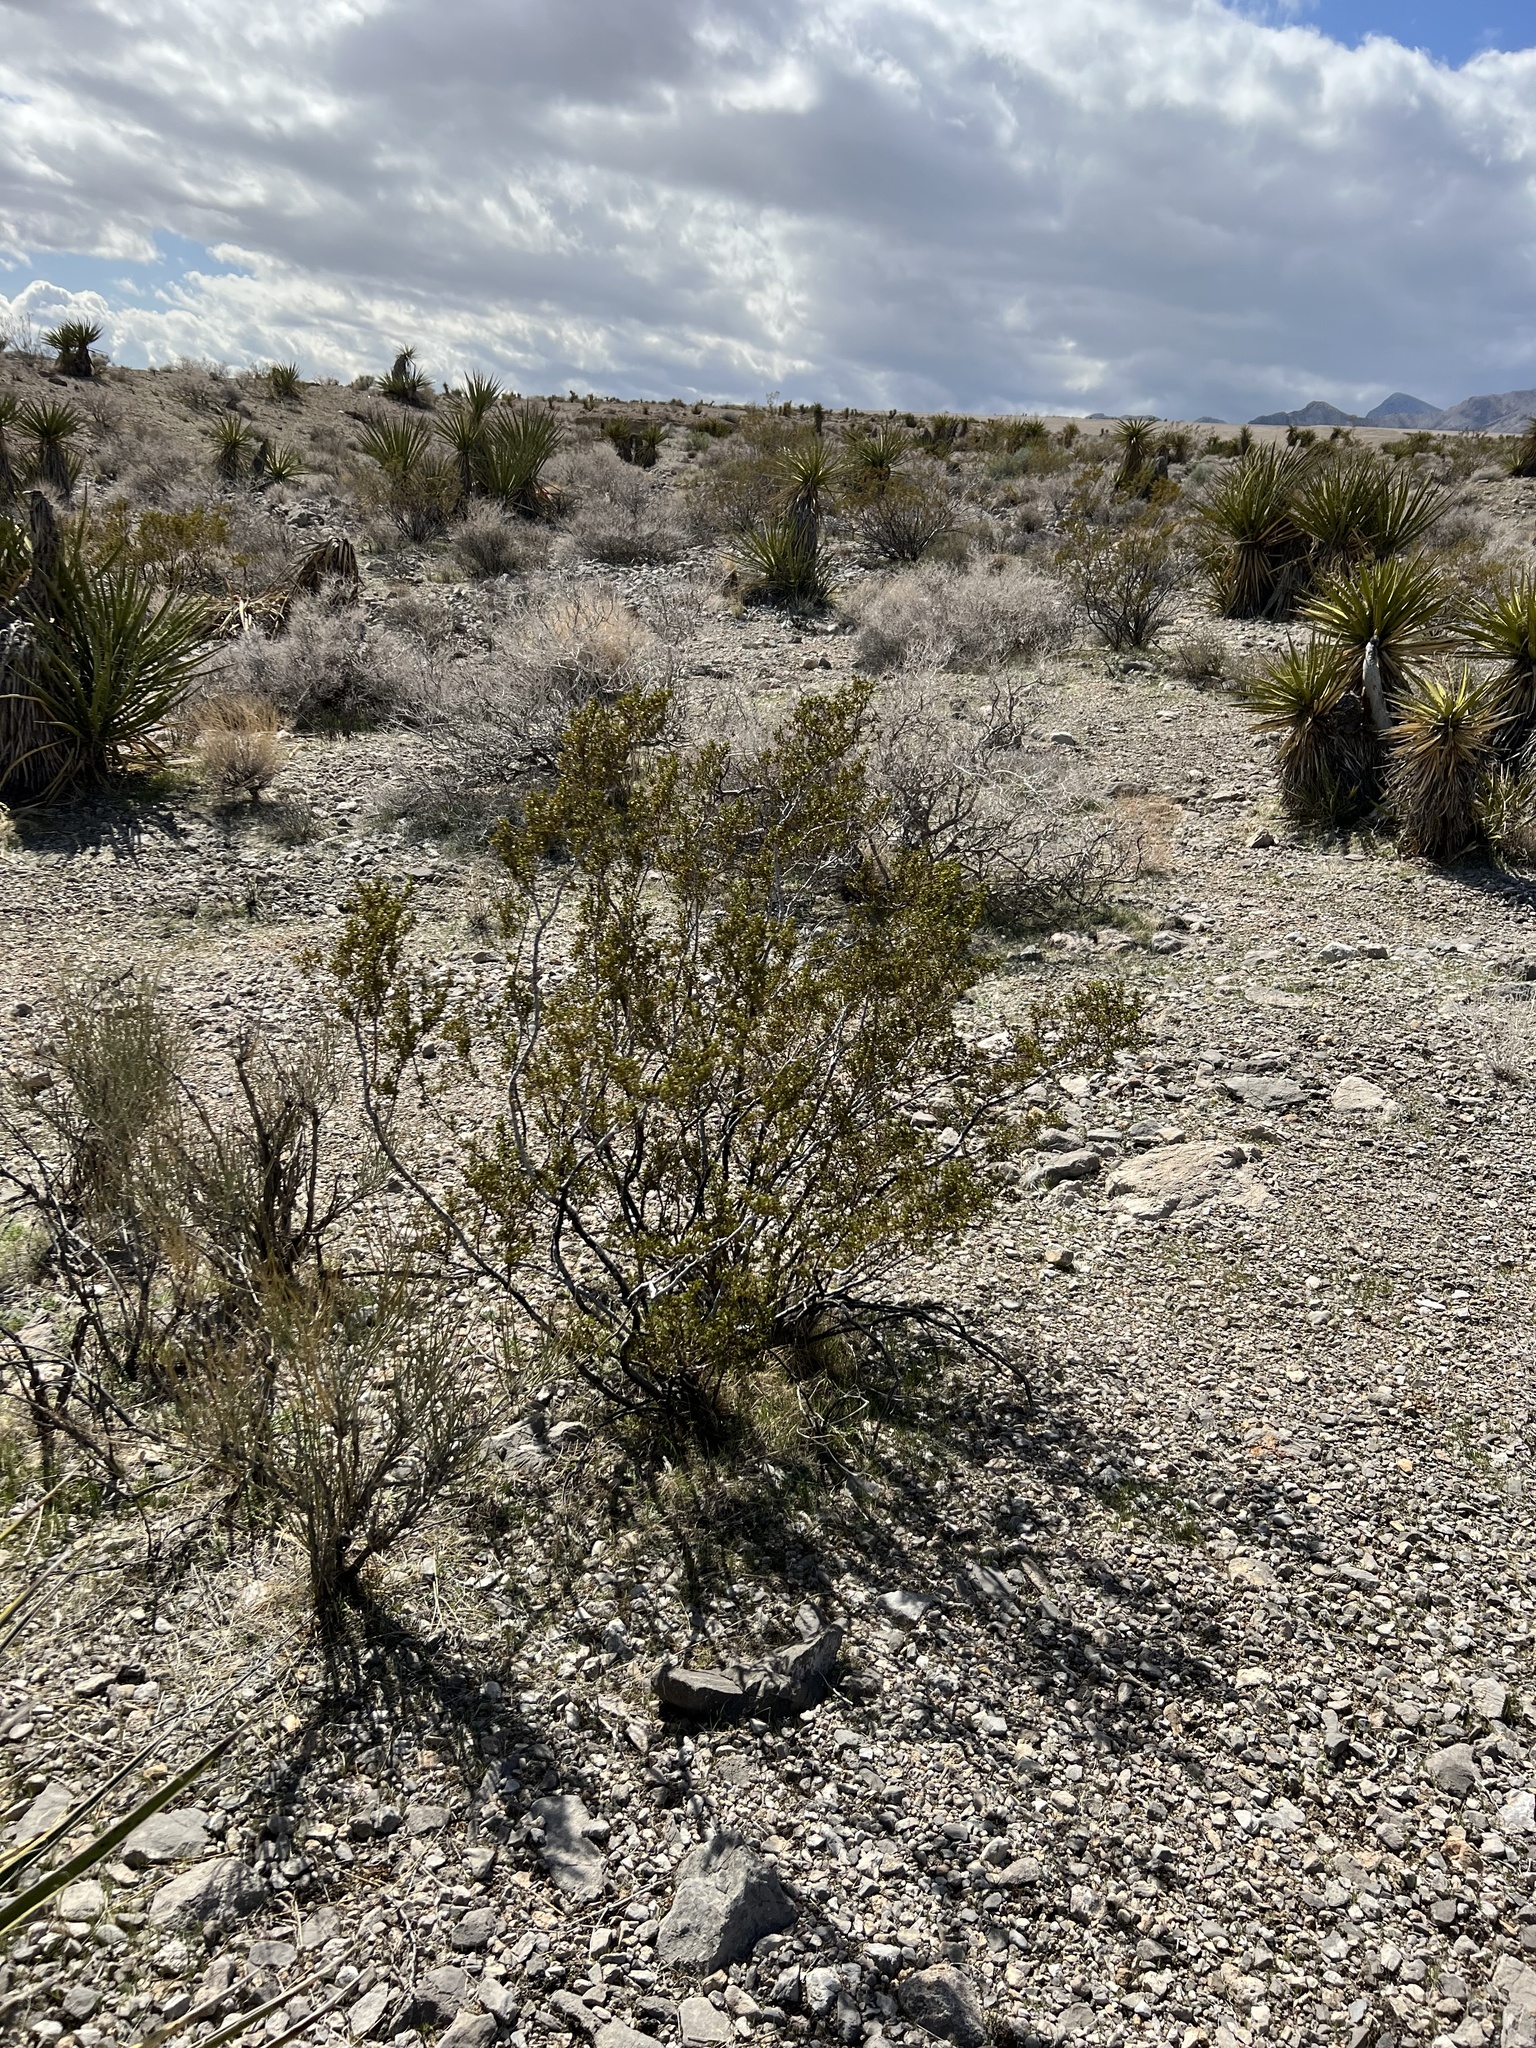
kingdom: Plantae
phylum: Tracheophyta
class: Magnoliopsida
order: Zygophyllales
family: Zygophyllaceae
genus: Larrea
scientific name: Larrea tridentata
